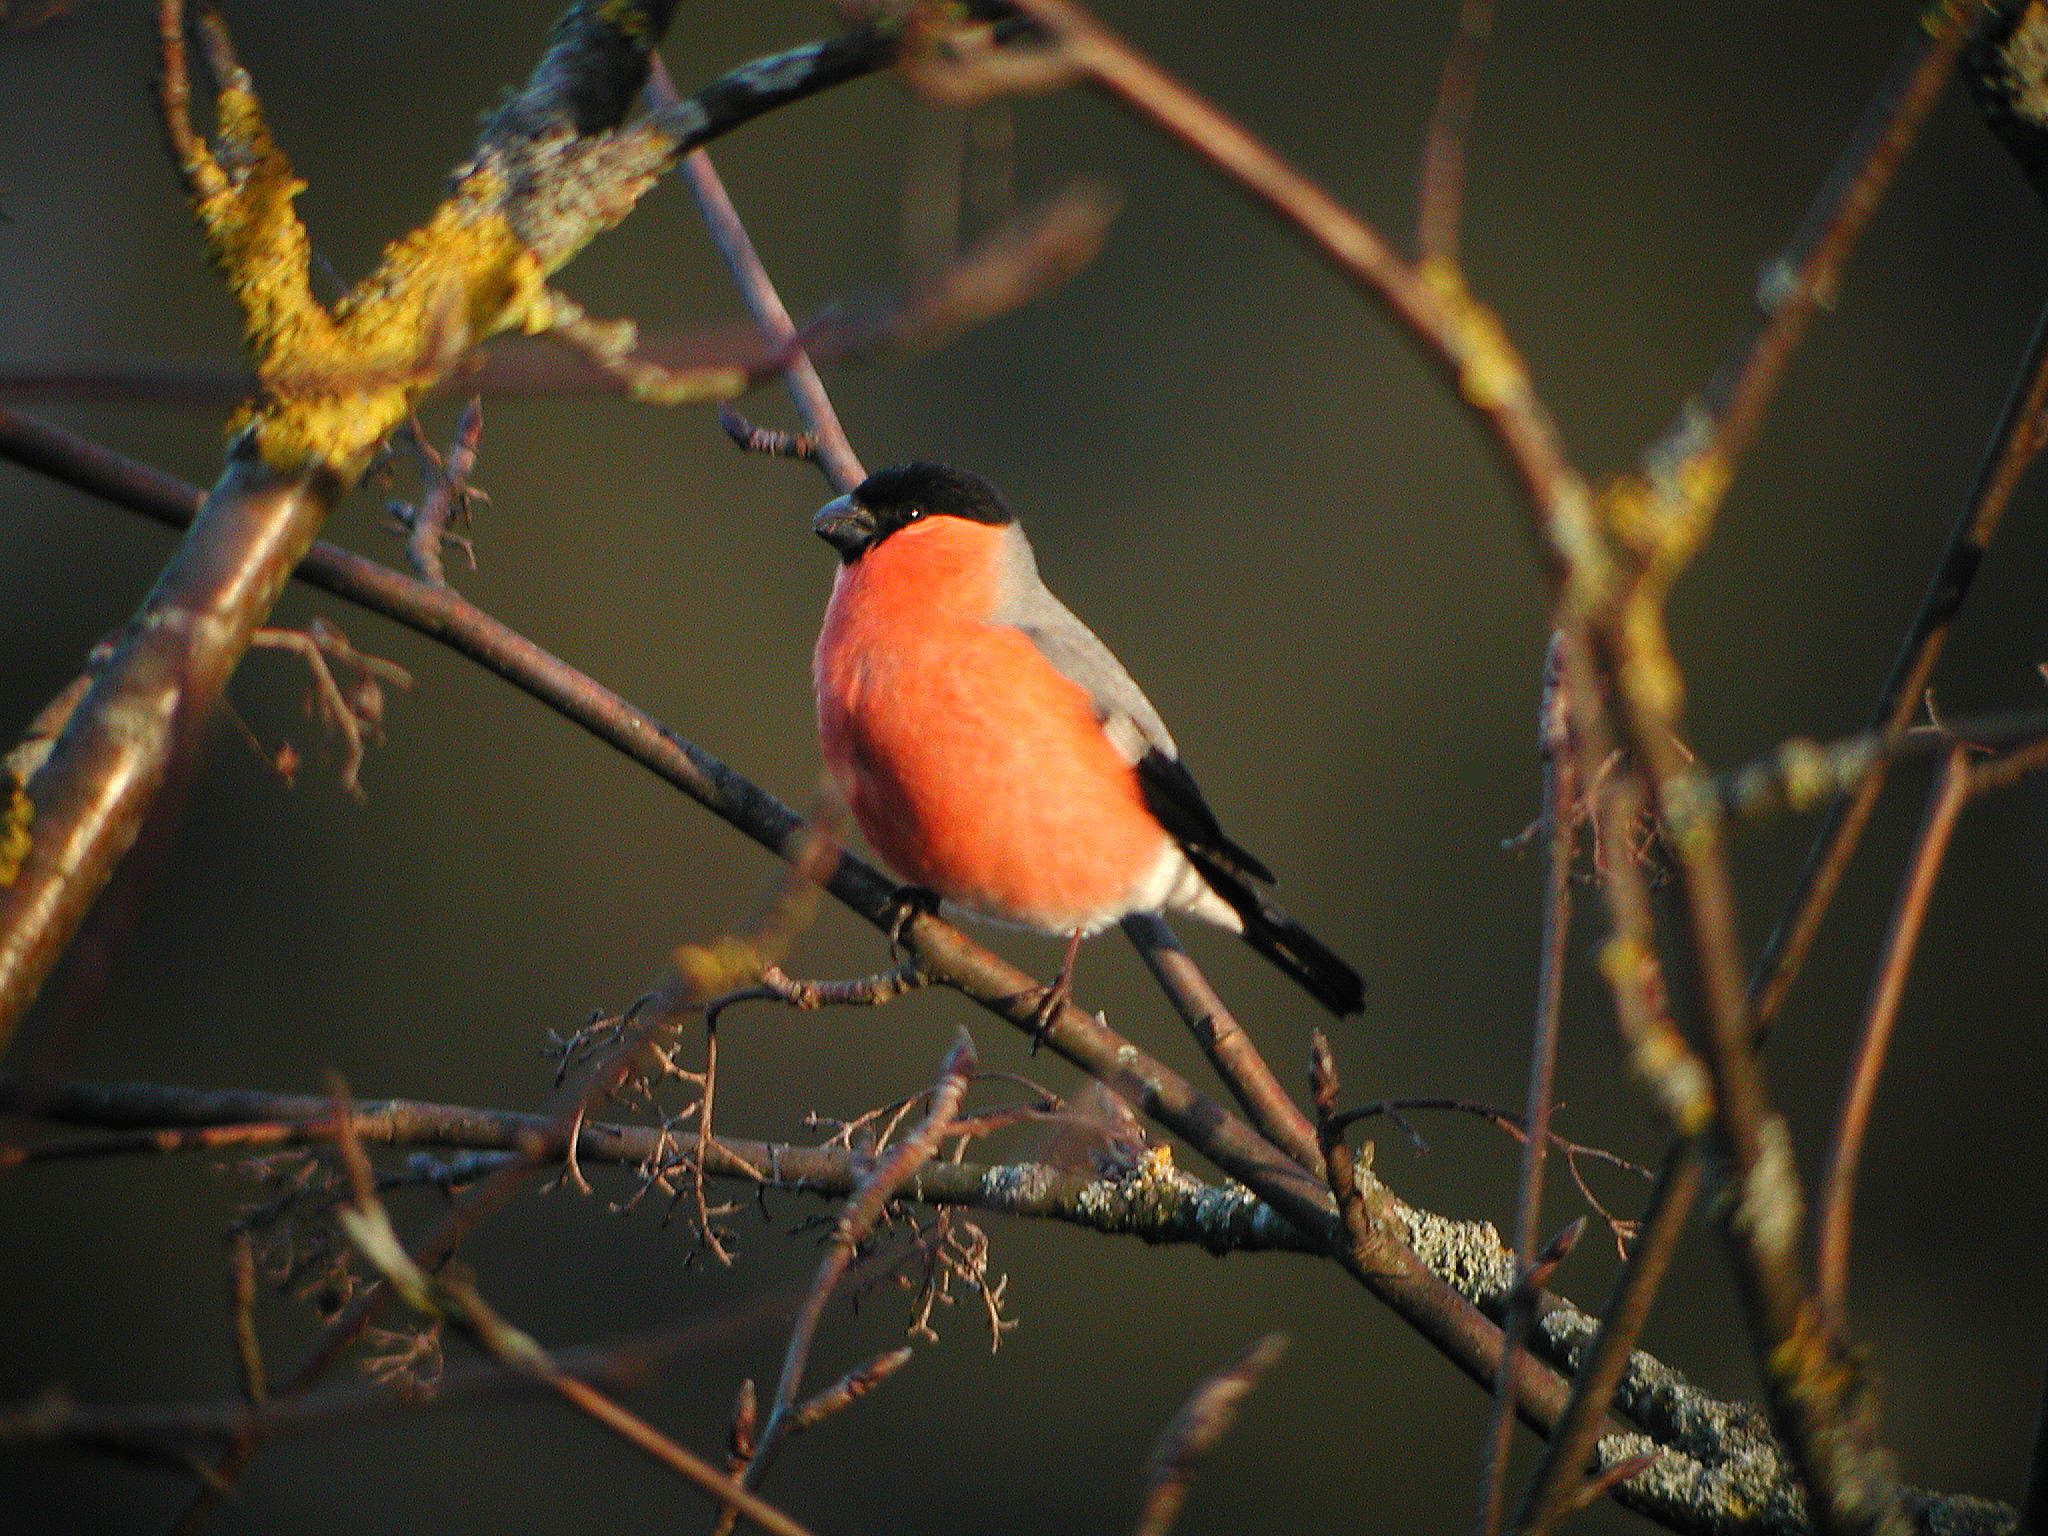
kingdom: Animalia
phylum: Chordata
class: Aves
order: Passeriformes
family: Fringillidae
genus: Pyrrhula
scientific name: Pyrrhula pyrrhula
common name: Eurasian bullfinch
